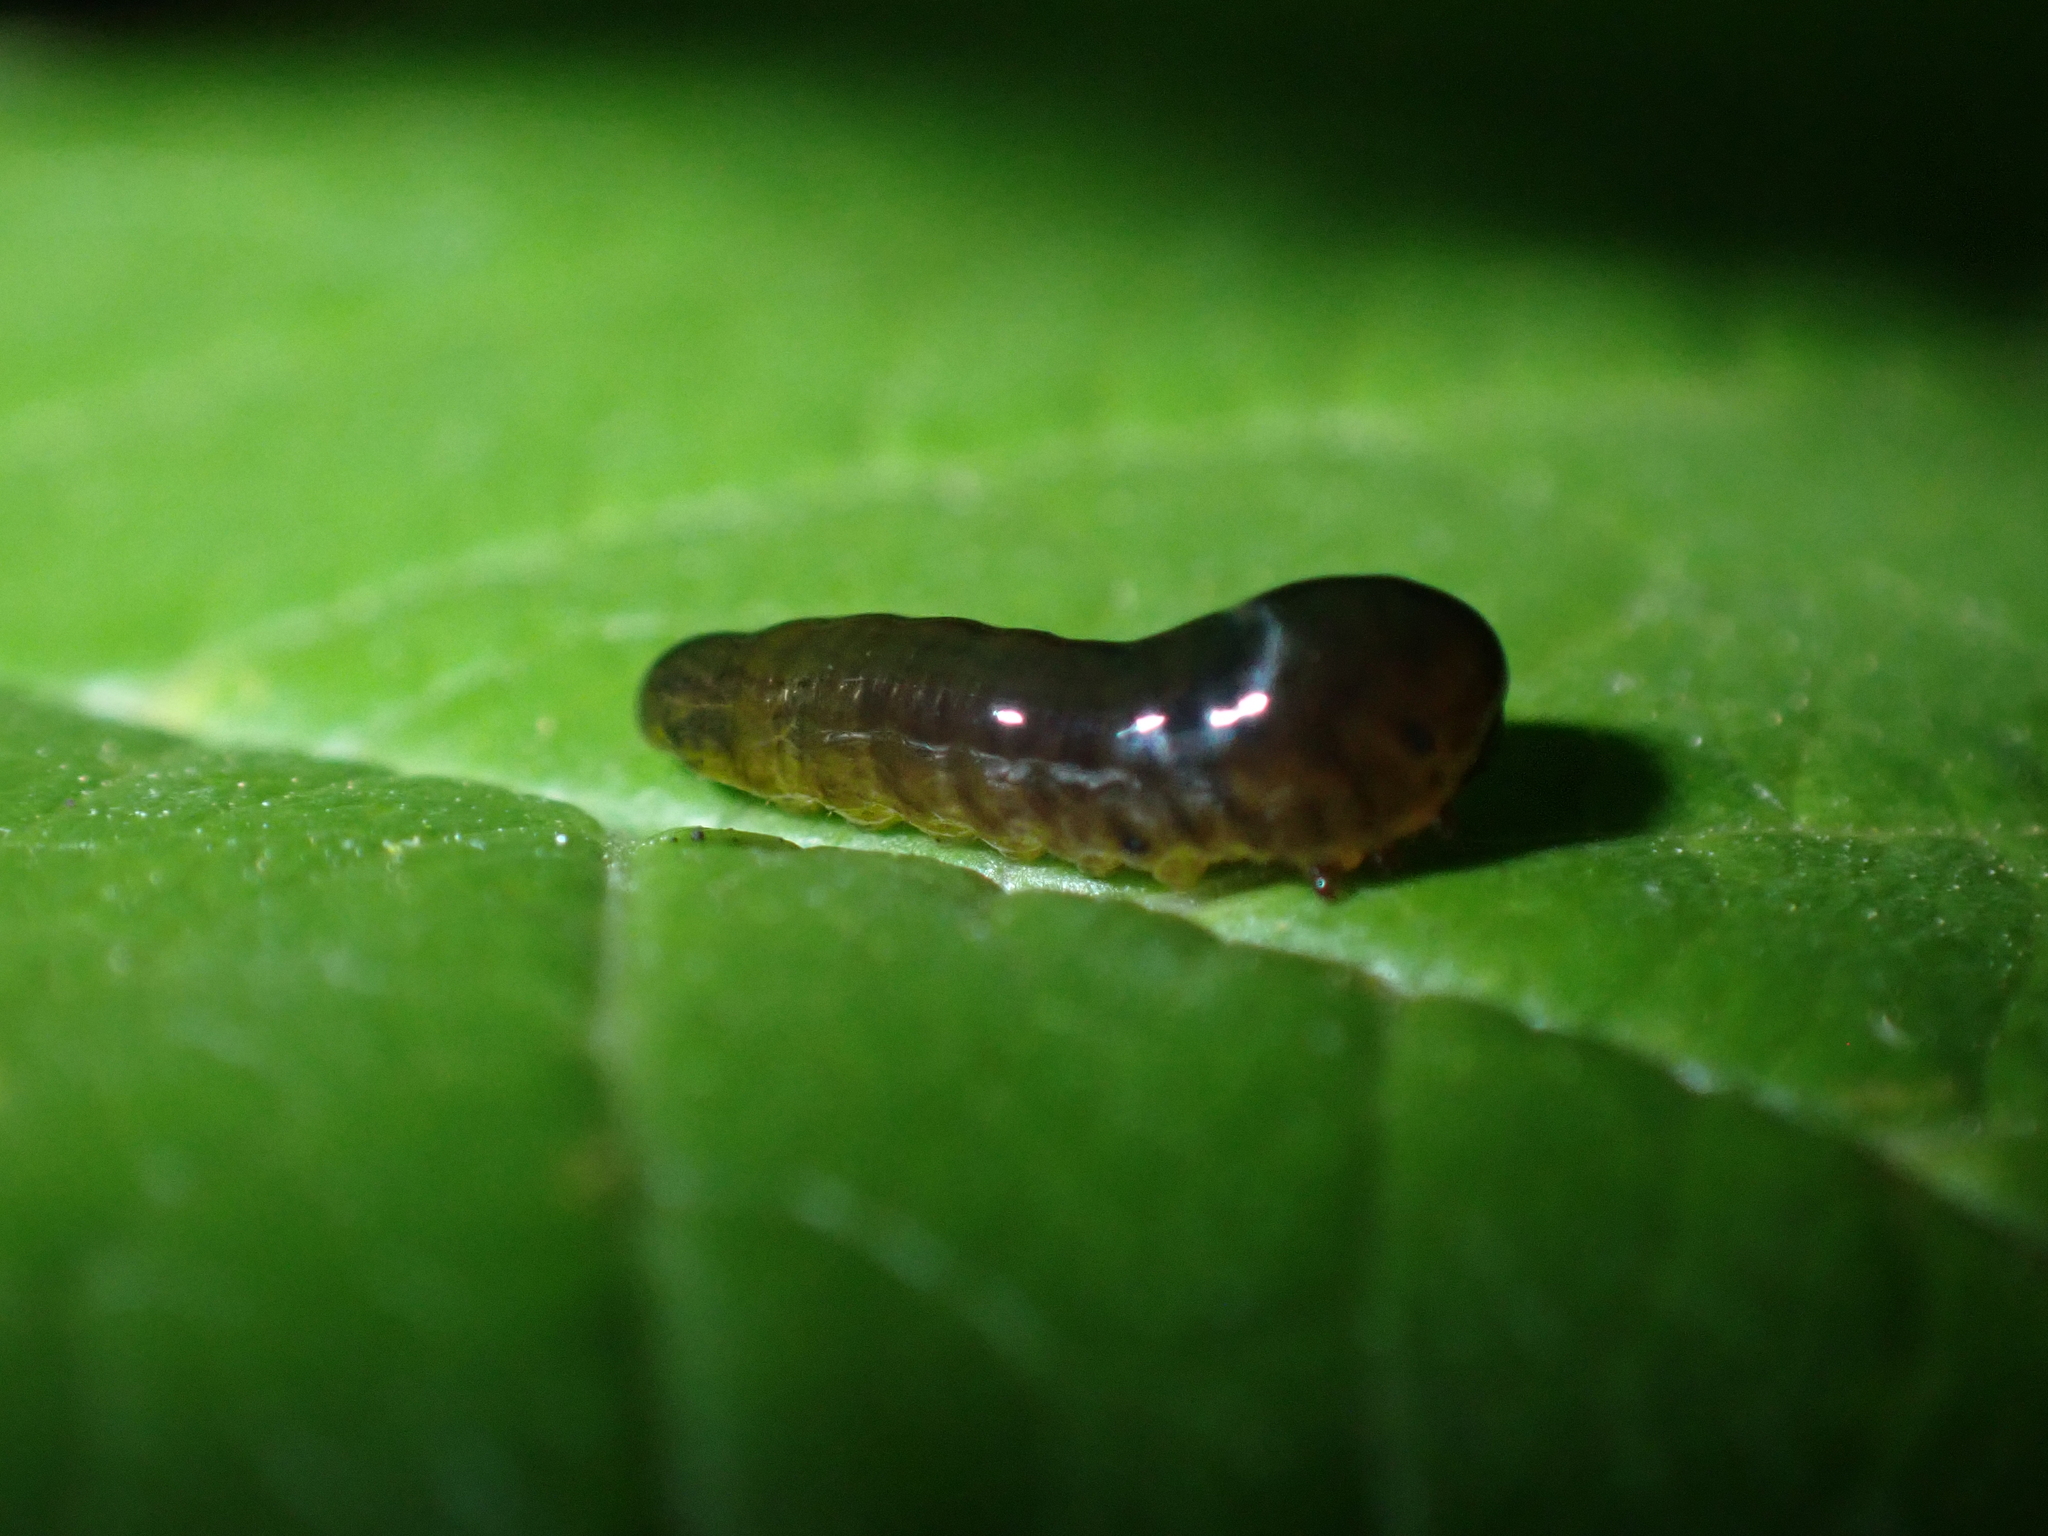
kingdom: Animalia
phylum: Arthropoda
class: Insecta
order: Hymenoptera
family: Tenthredinidae
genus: Caliroa
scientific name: Caliroa cerasi
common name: Pear sawfly
